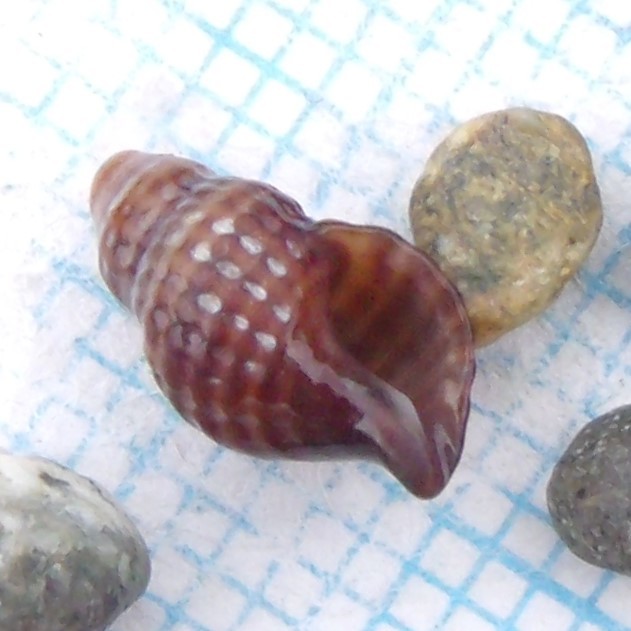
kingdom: Animalia
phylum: Mollusca
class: Gastropoda
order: Neogastropoda
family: Muricidae
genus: Xymene
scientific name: Xymene plebeius
